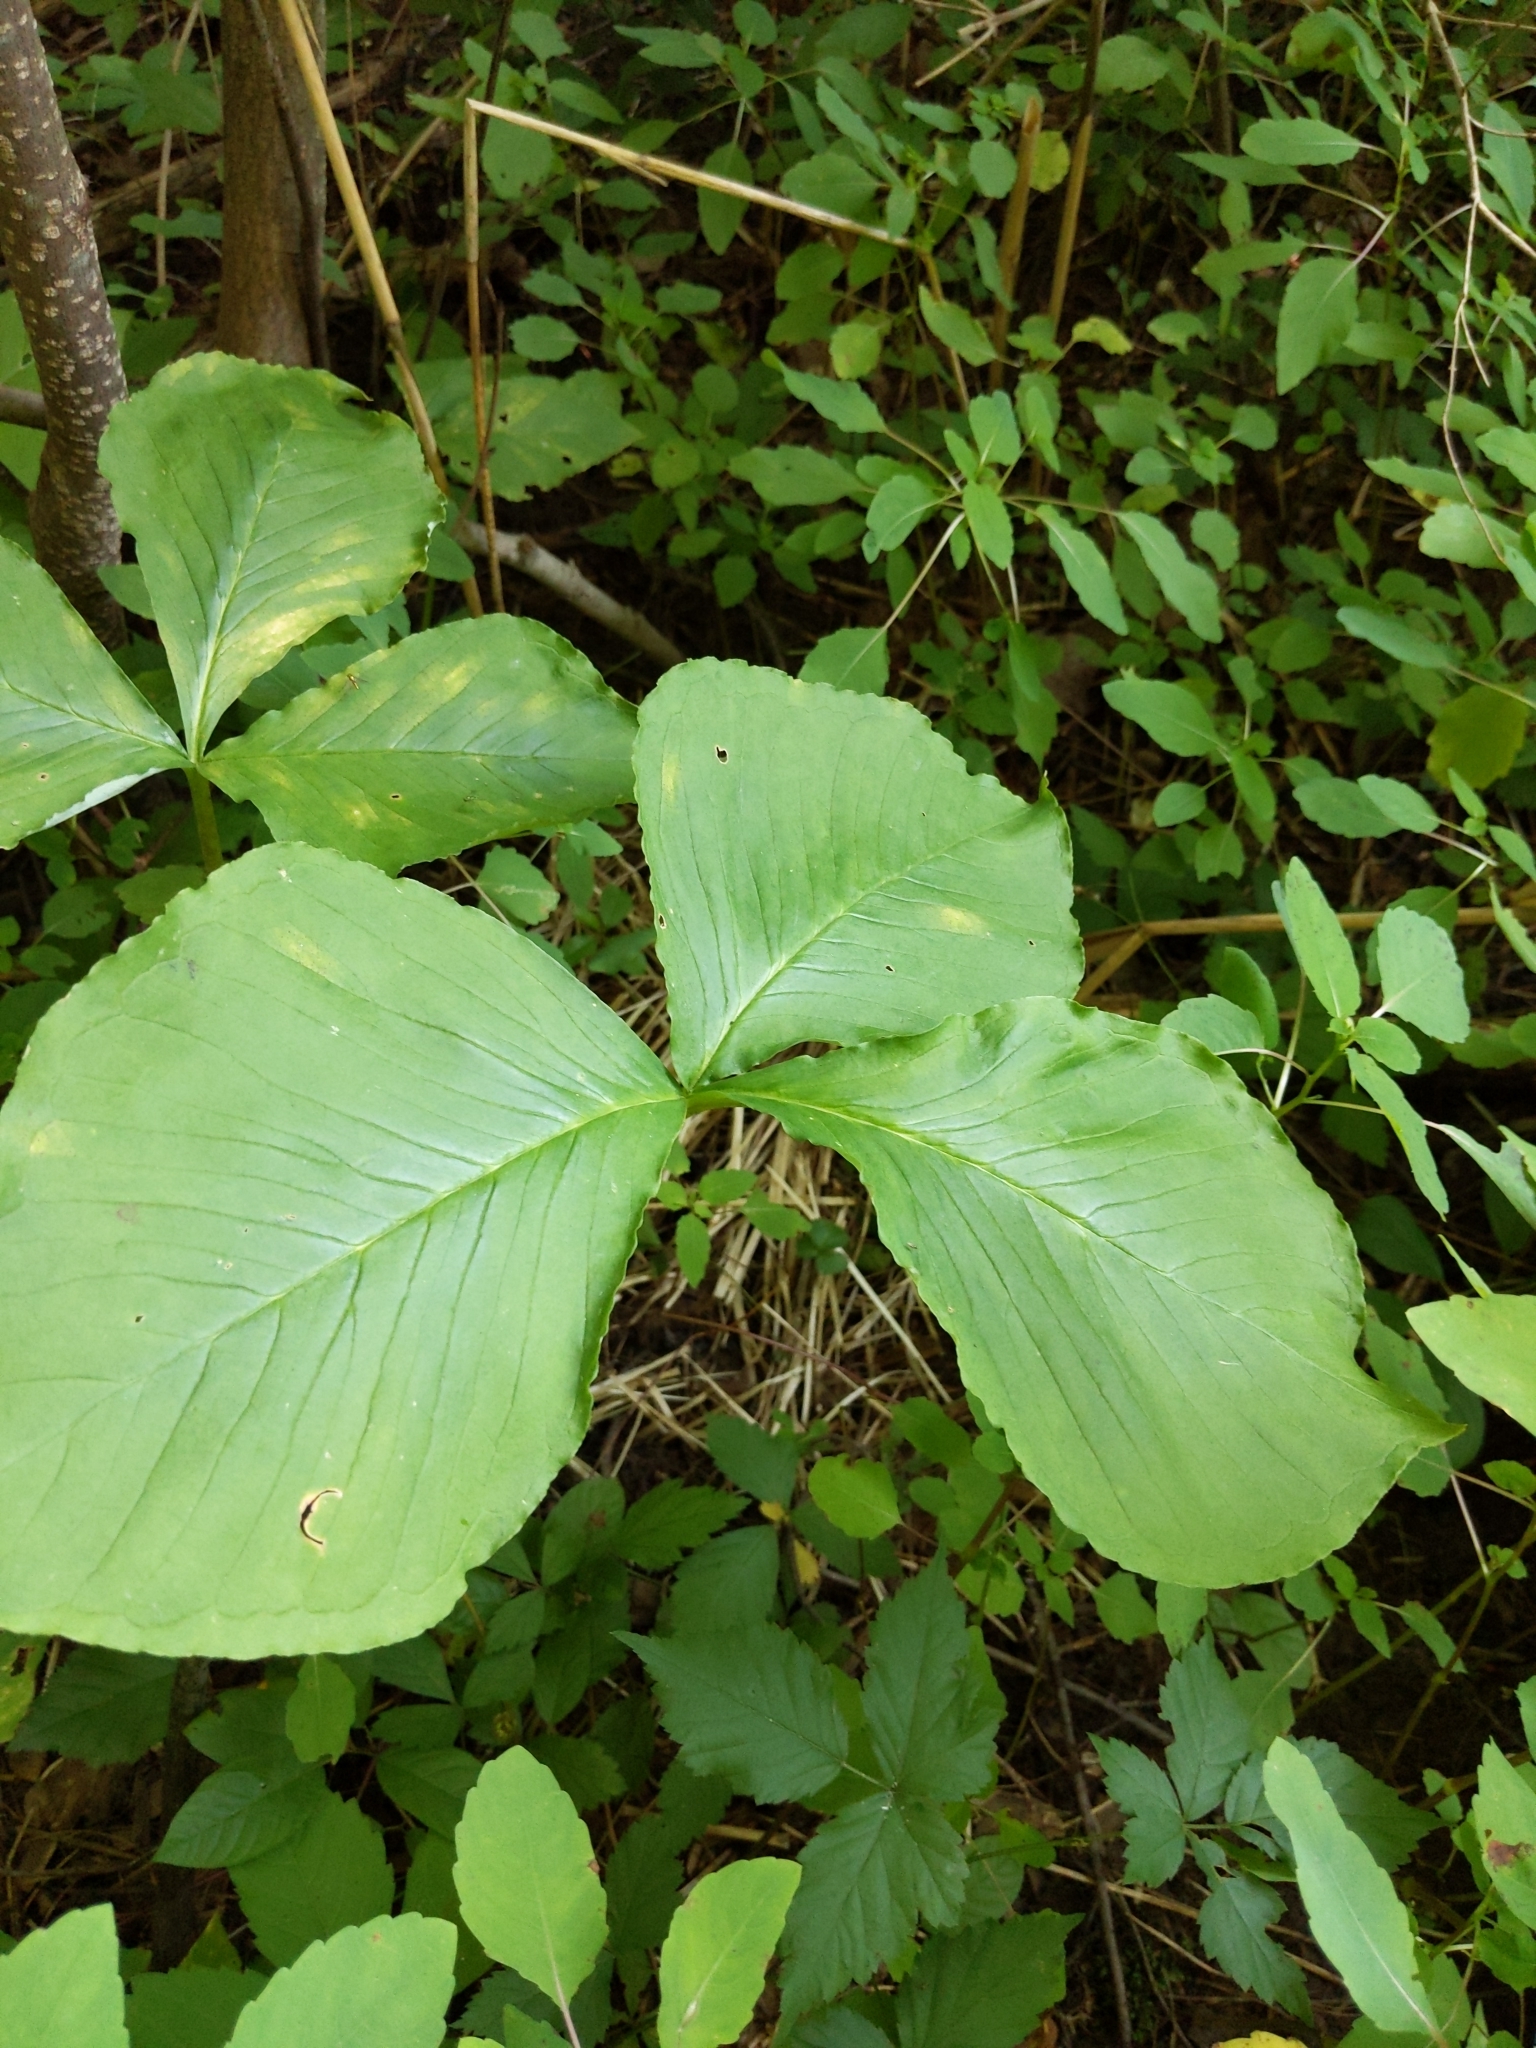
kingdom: Plantae
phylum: Tracheophyta
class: Liliopsida
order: Alismatales
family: Araceae
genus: Arisaema
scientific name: Arisaema triphyllum
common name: Jack-in-the-pulpit
